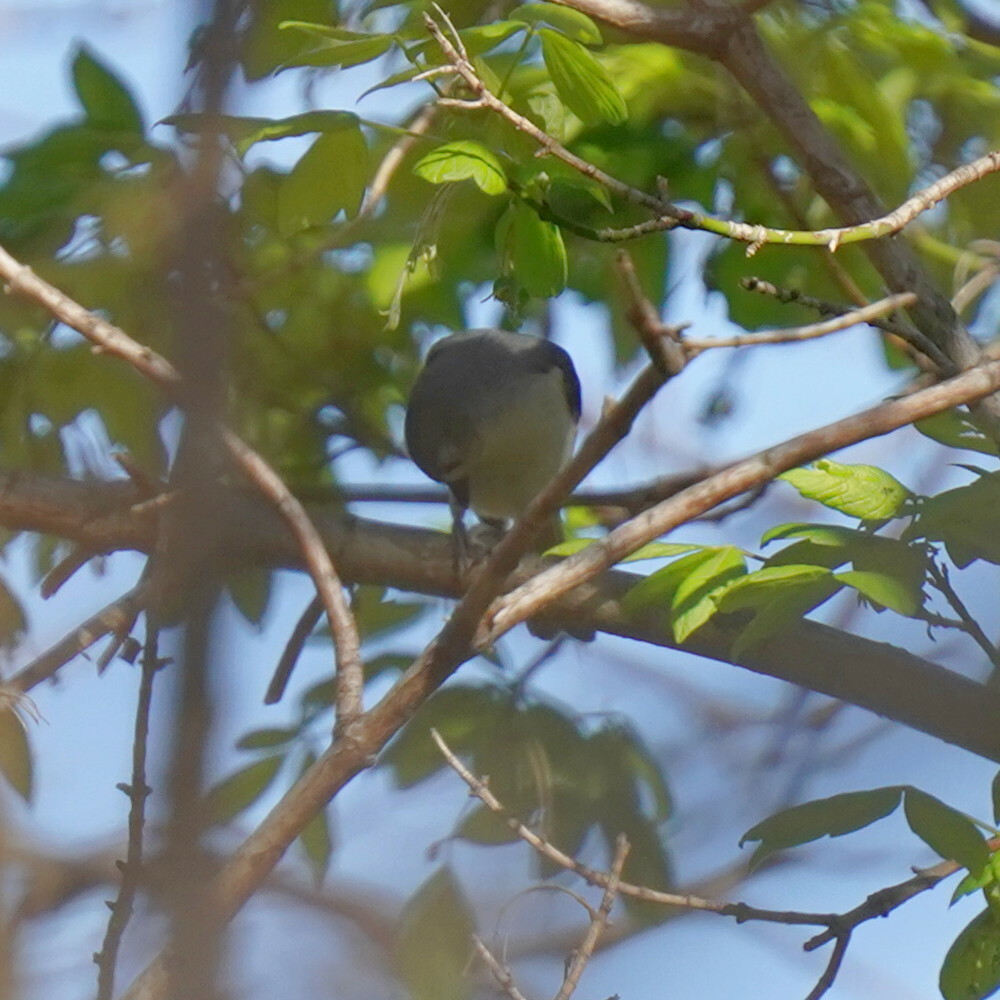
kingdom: Animalia
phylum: Chordata
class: Aves
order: Passeriformes
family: Paridae
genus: Baeolophus
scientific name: Baeolophus bicolor
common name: Tufted titmouse
